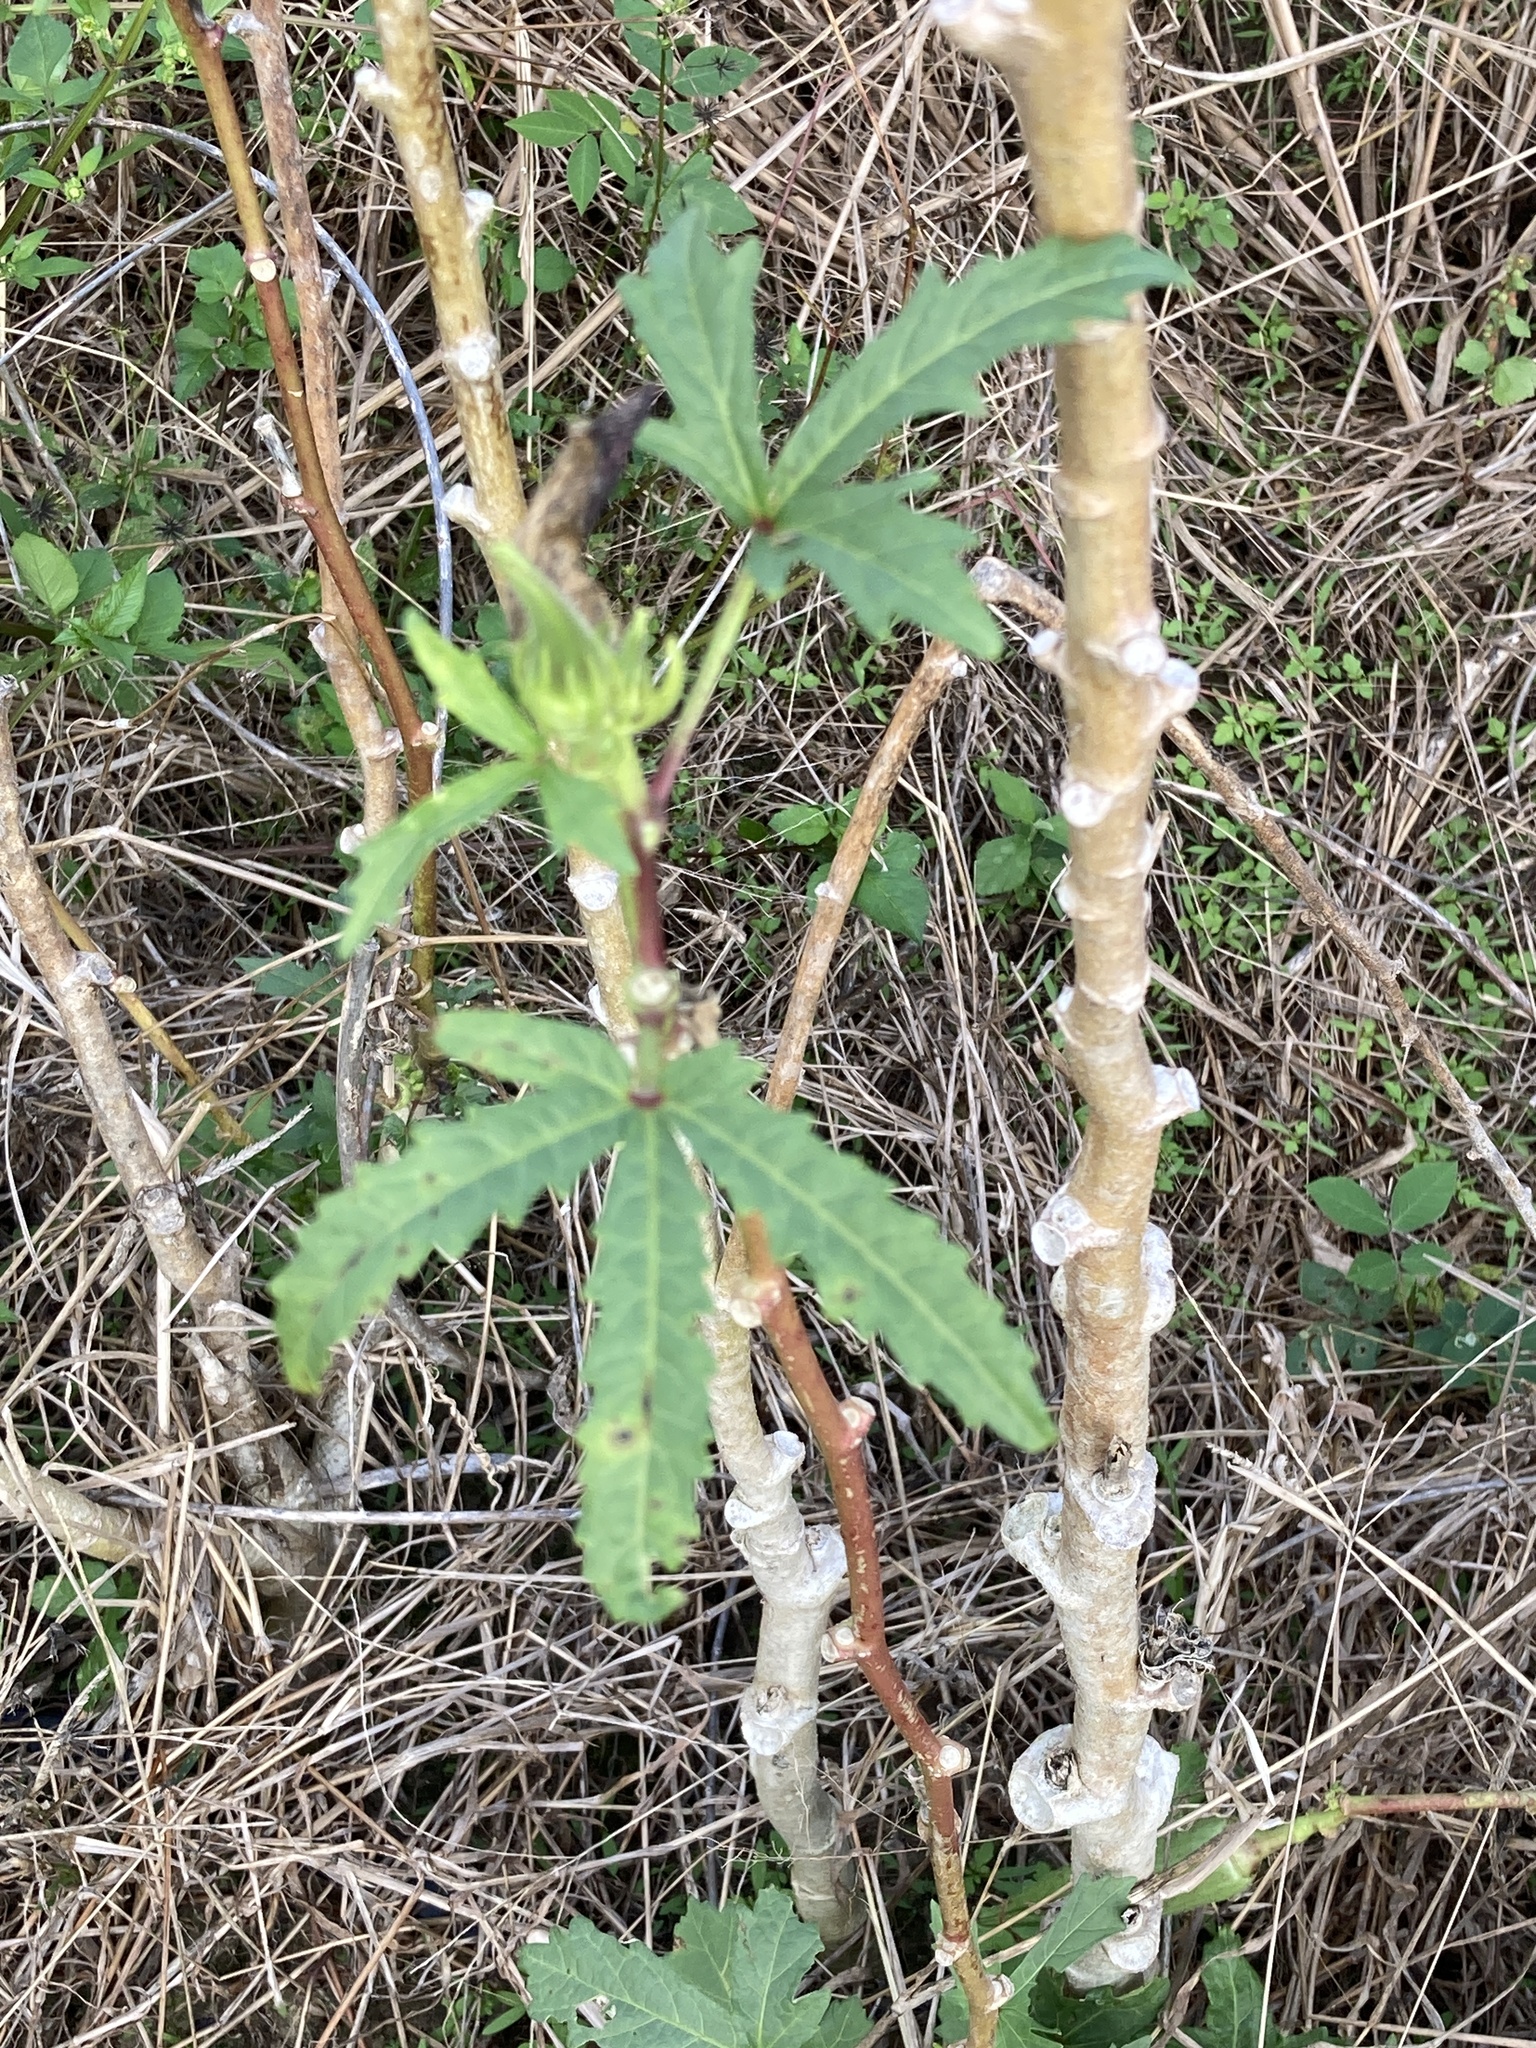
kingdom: Plantae
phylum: Tracheophyta
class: Magnoliopsida
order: Malvales
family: Malvaceae
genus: Abelmoschus
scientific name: Abelmoschus esculentus
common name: Okra
